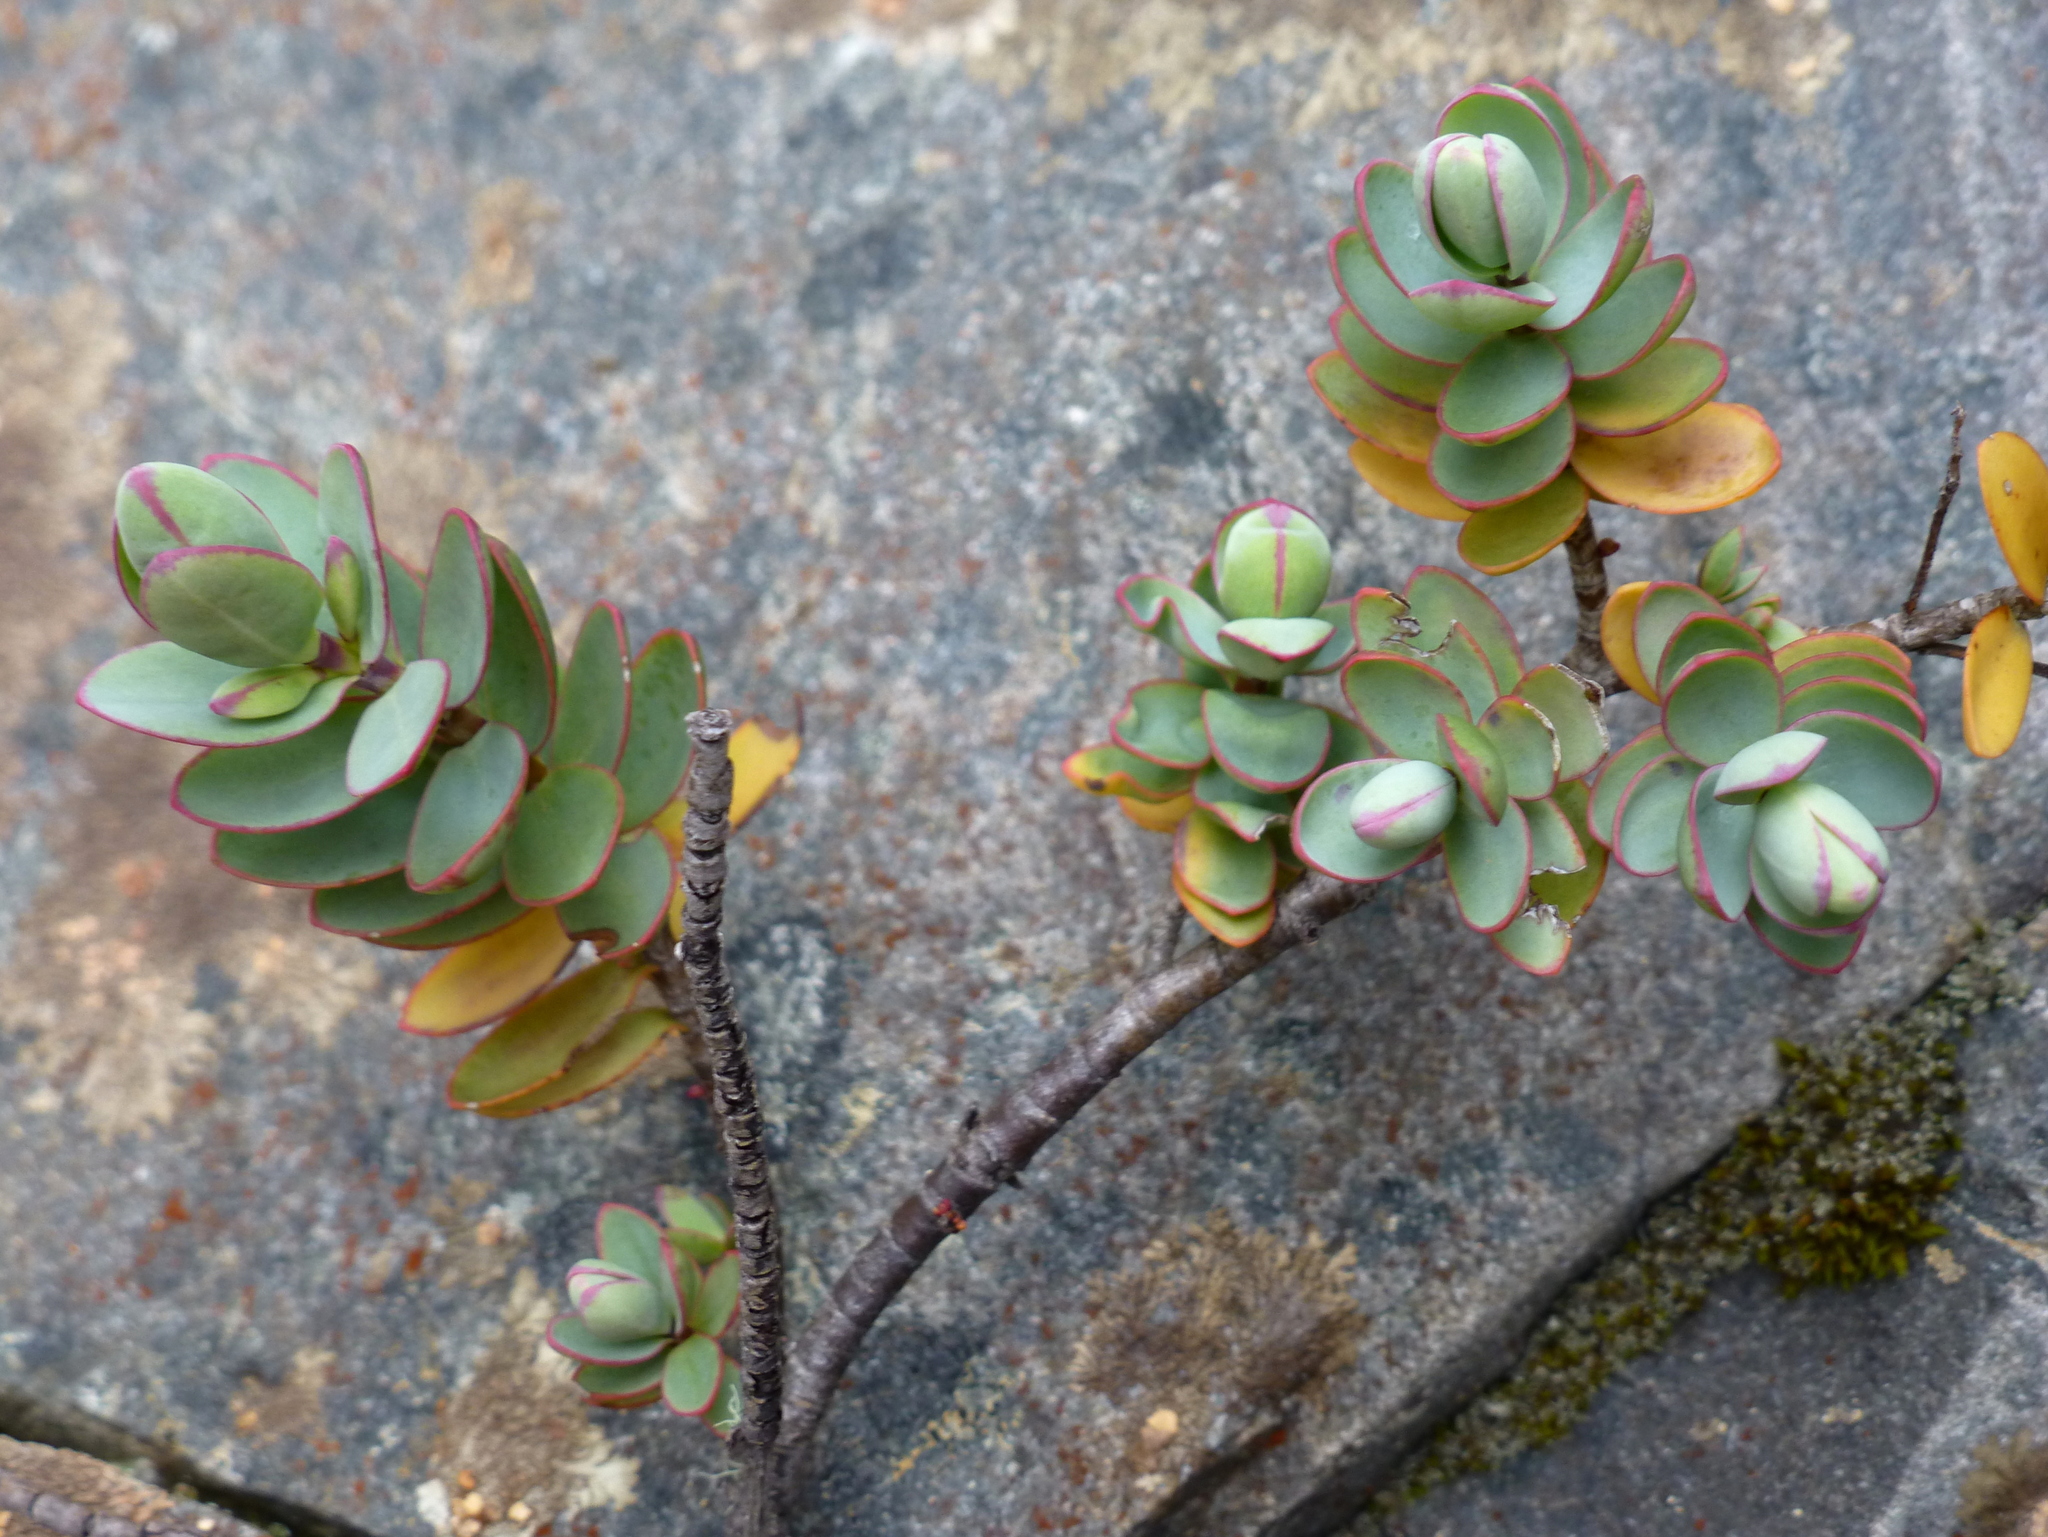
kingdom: Plantae
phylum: Tracheophyta
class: Magnoliopsida
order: Lamiales
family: Plantaginaceae
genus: Veronica
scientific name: Veronica pinguifolia
